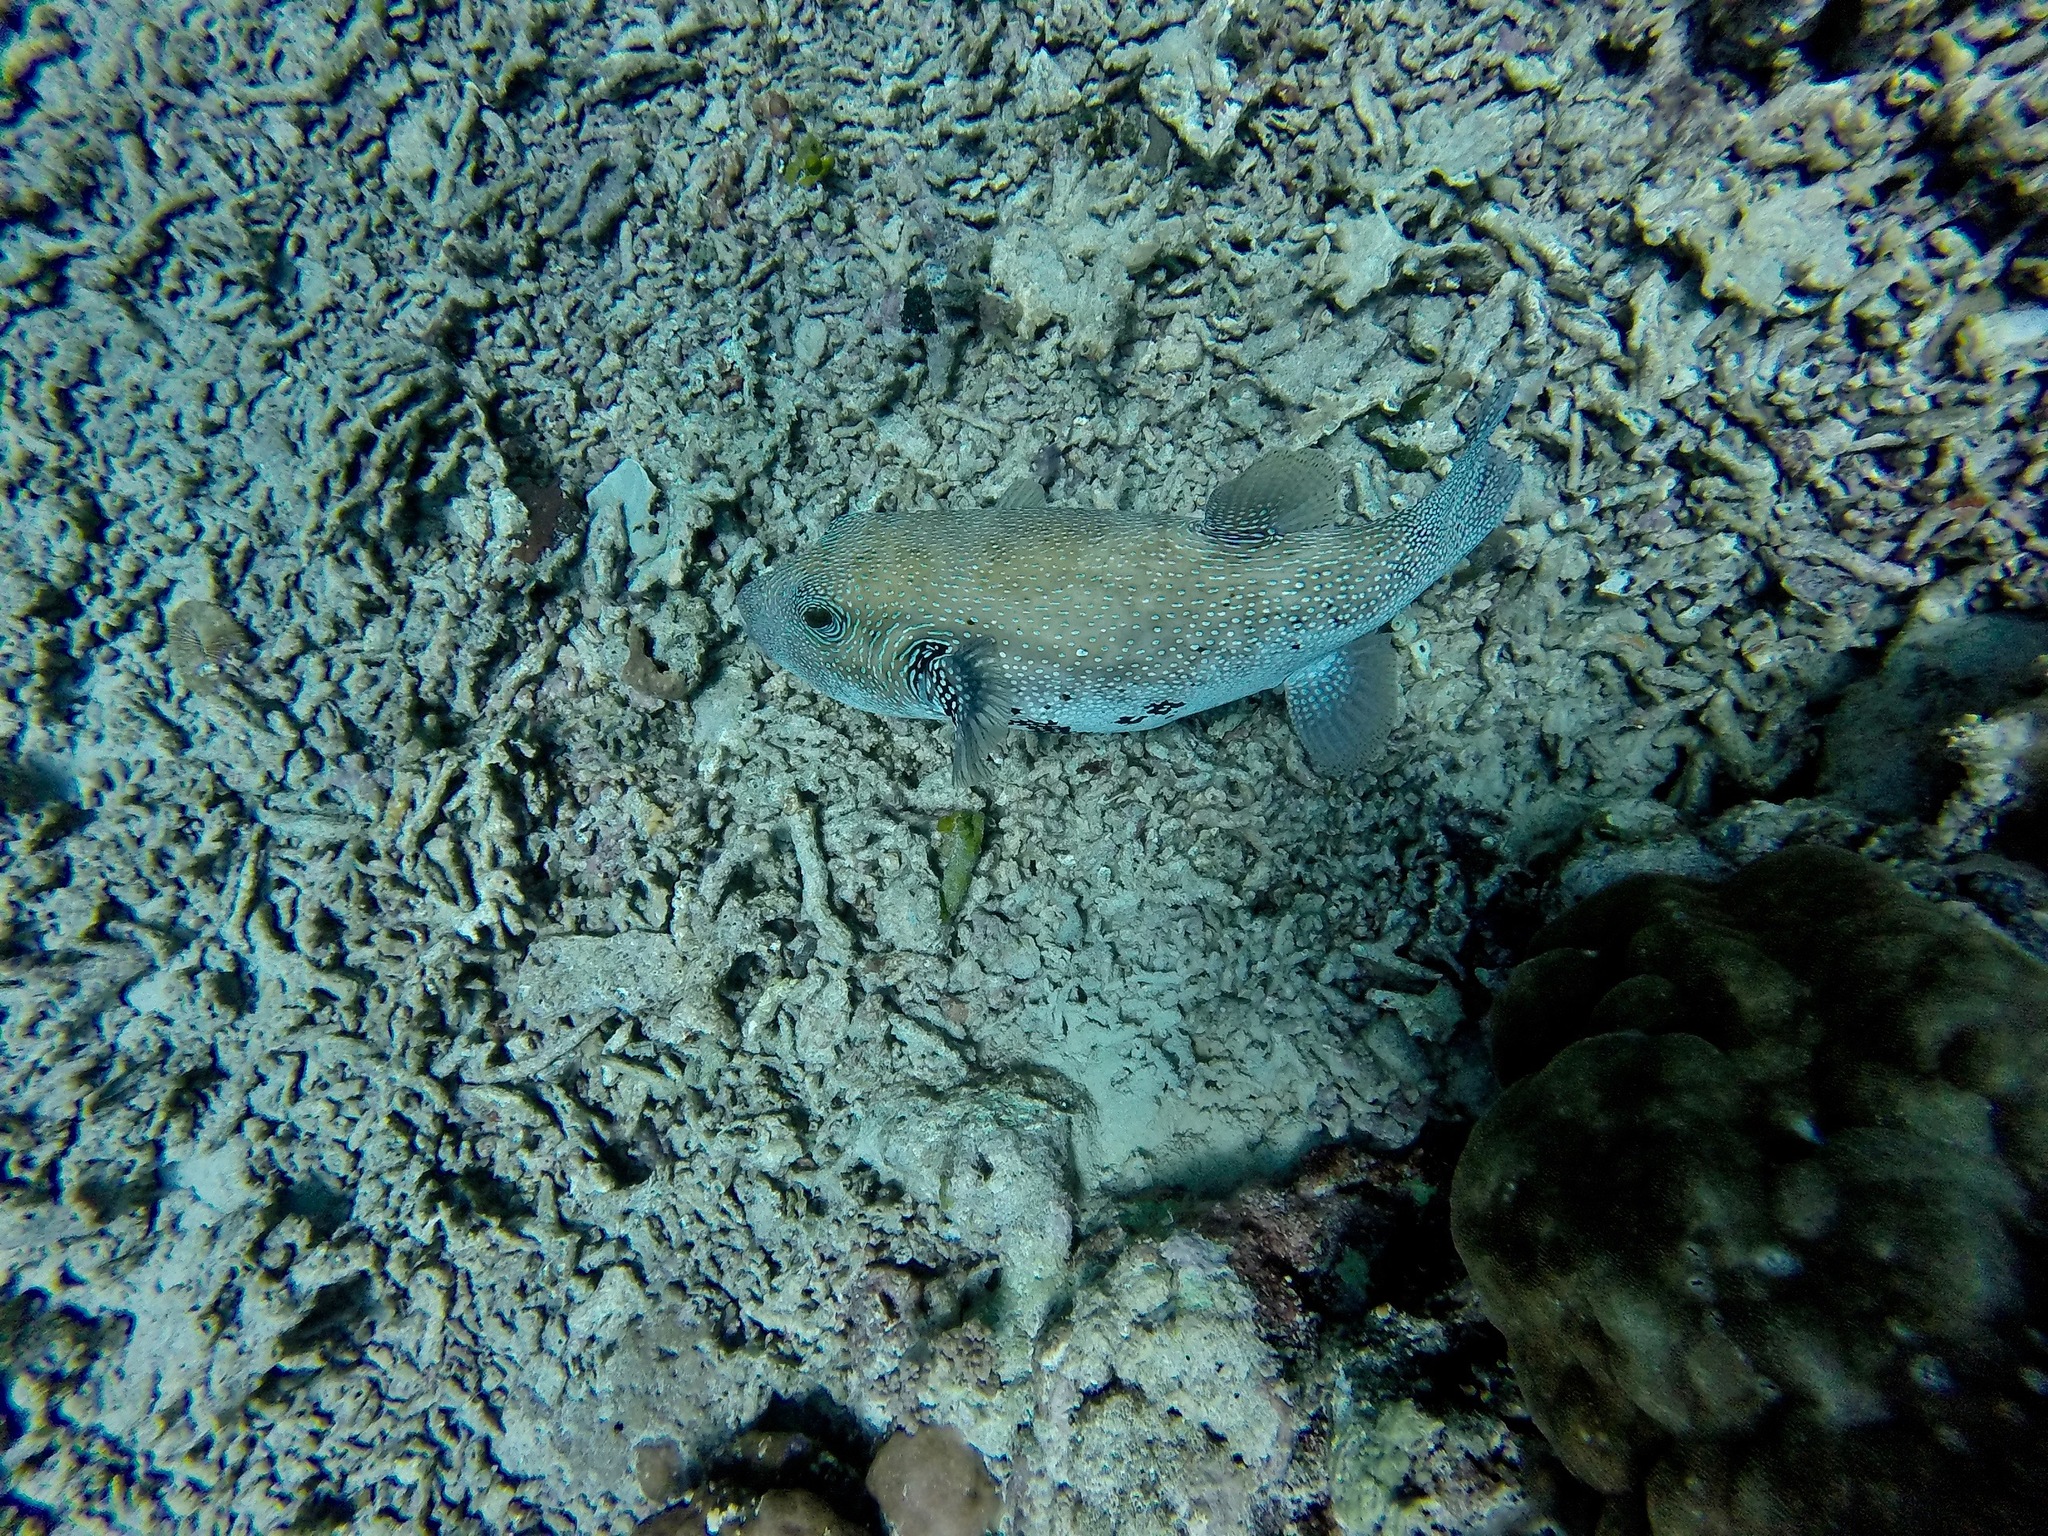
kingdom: Animalia
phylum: Chordata
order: Tetraodontiformes
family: Tetraodontidae
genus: Arothron
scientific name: Arothron caeruleopunctatus
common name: Blue-spotted puffer
